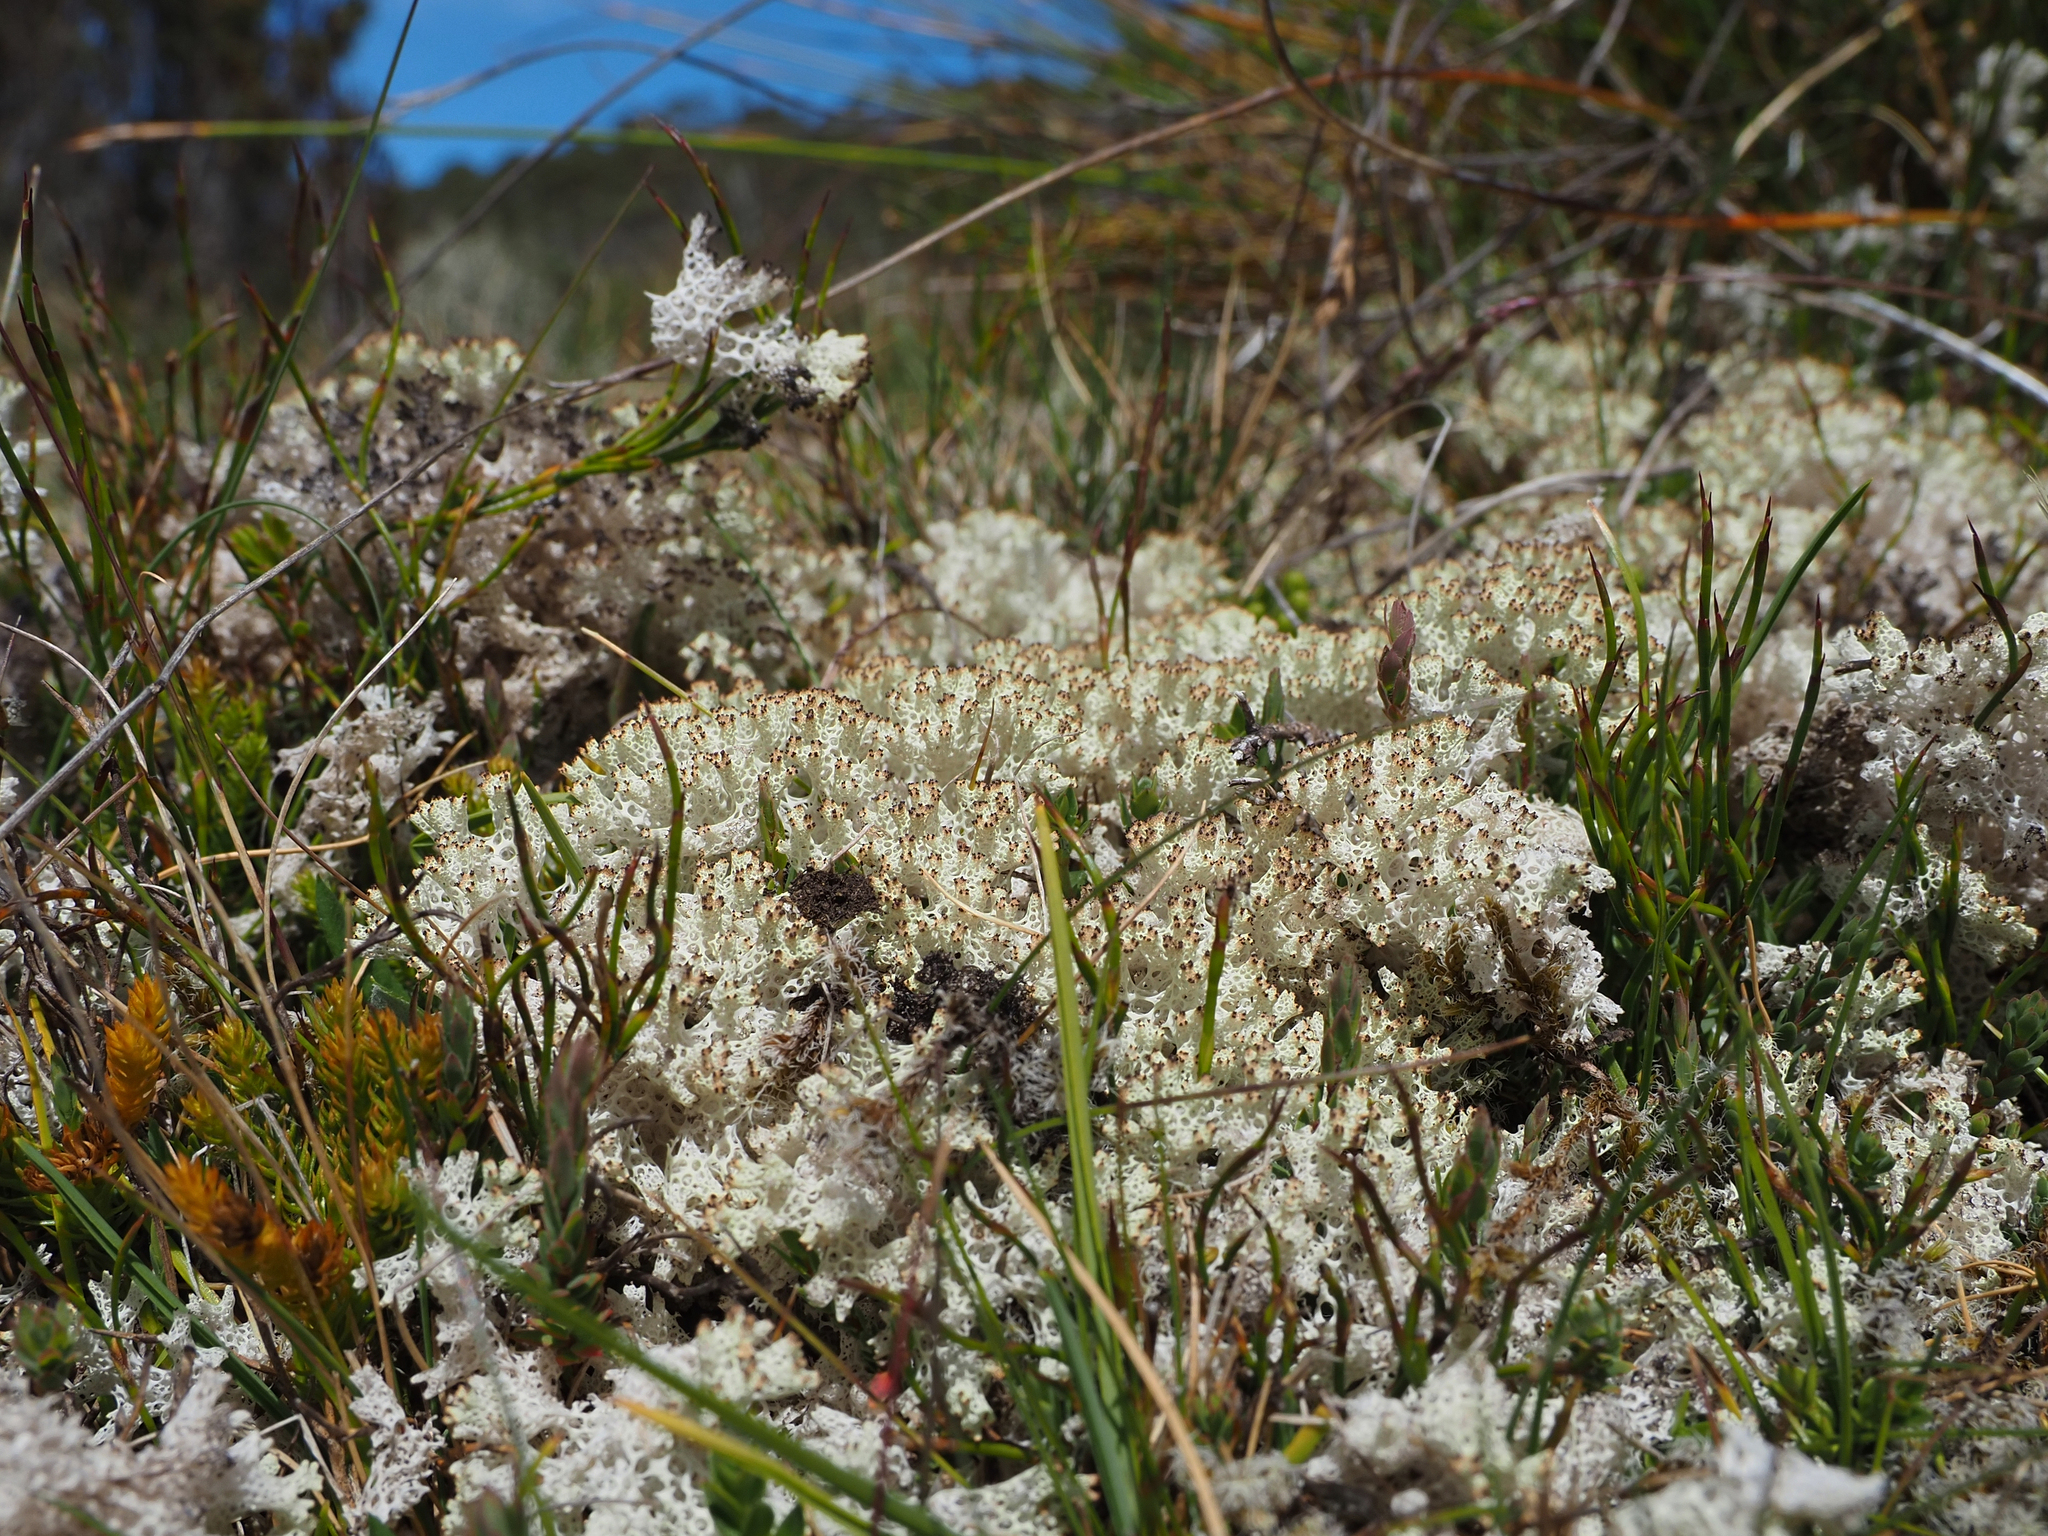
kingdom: Fungi
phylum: Ascomycota
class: Lecanoromycetes
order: Lecanorales
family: Cladoniaceae
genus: Pulchrocladia
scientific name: Pulchrocladia retipora
